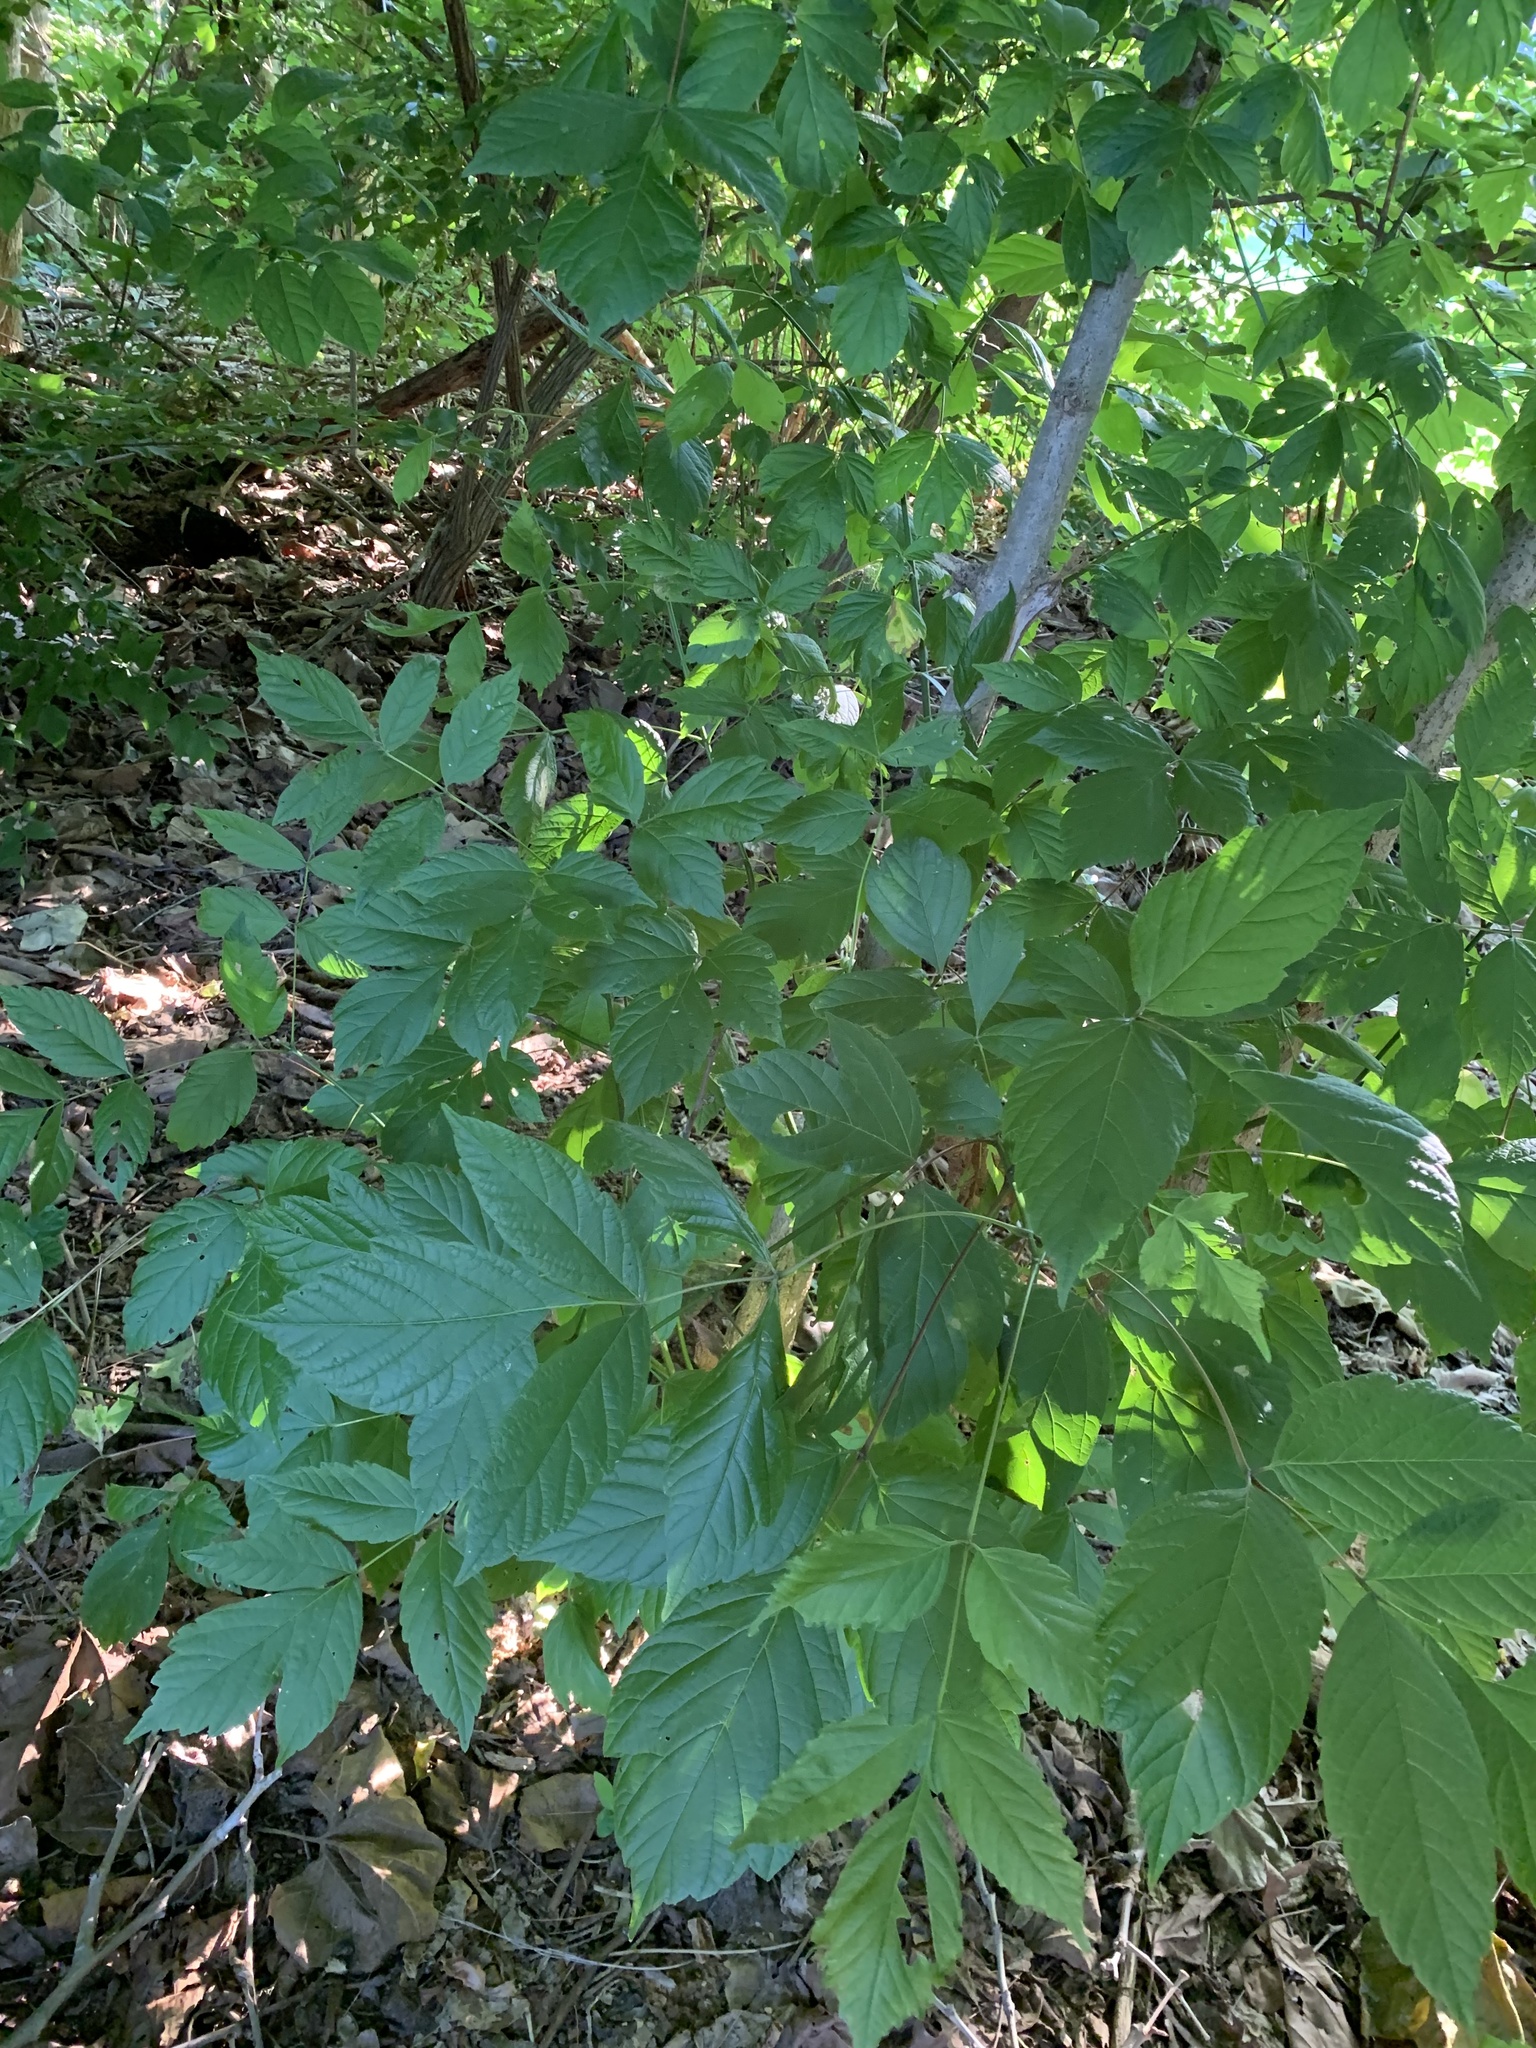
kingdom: Plantae
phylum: Tracheophyta
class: Magnoliopsida
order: Sapindales
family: Sapindaceae
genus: Acer
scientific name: Acer negundo
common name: Ashleaf maple
